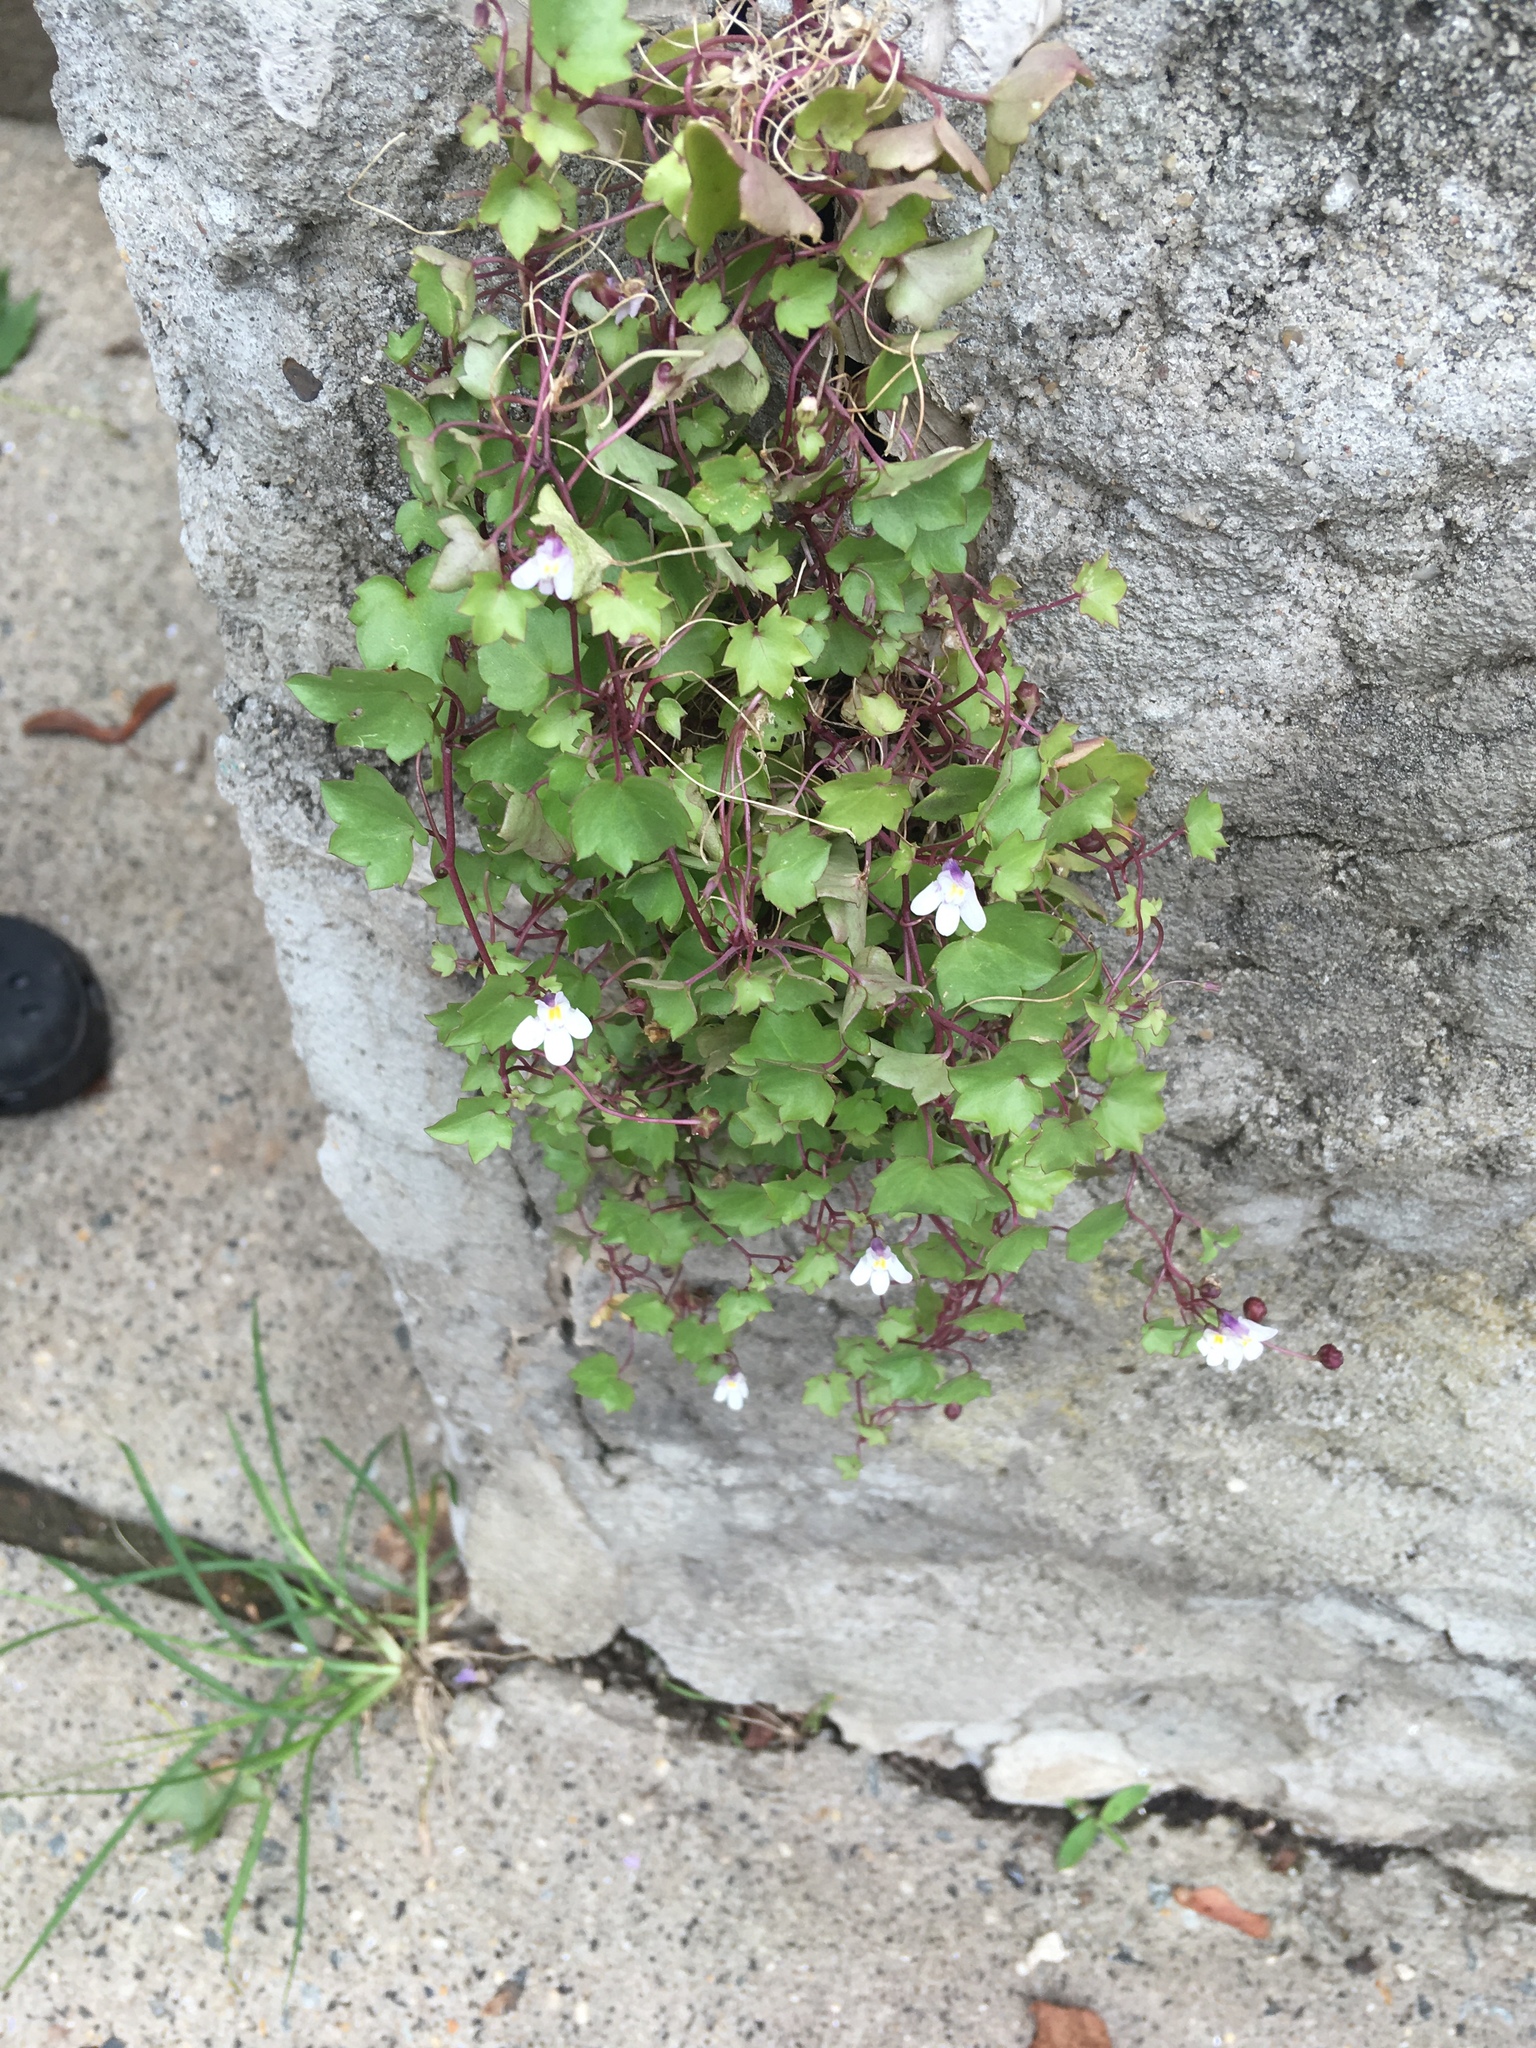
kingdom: Plantae
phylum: Tracheophyta
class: Magnoliopsida
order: Lamiales
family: Plantaginaceae
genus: Cymbalaria
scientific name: Cymbalaria muralis
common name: Ivy-leaved toadflax
